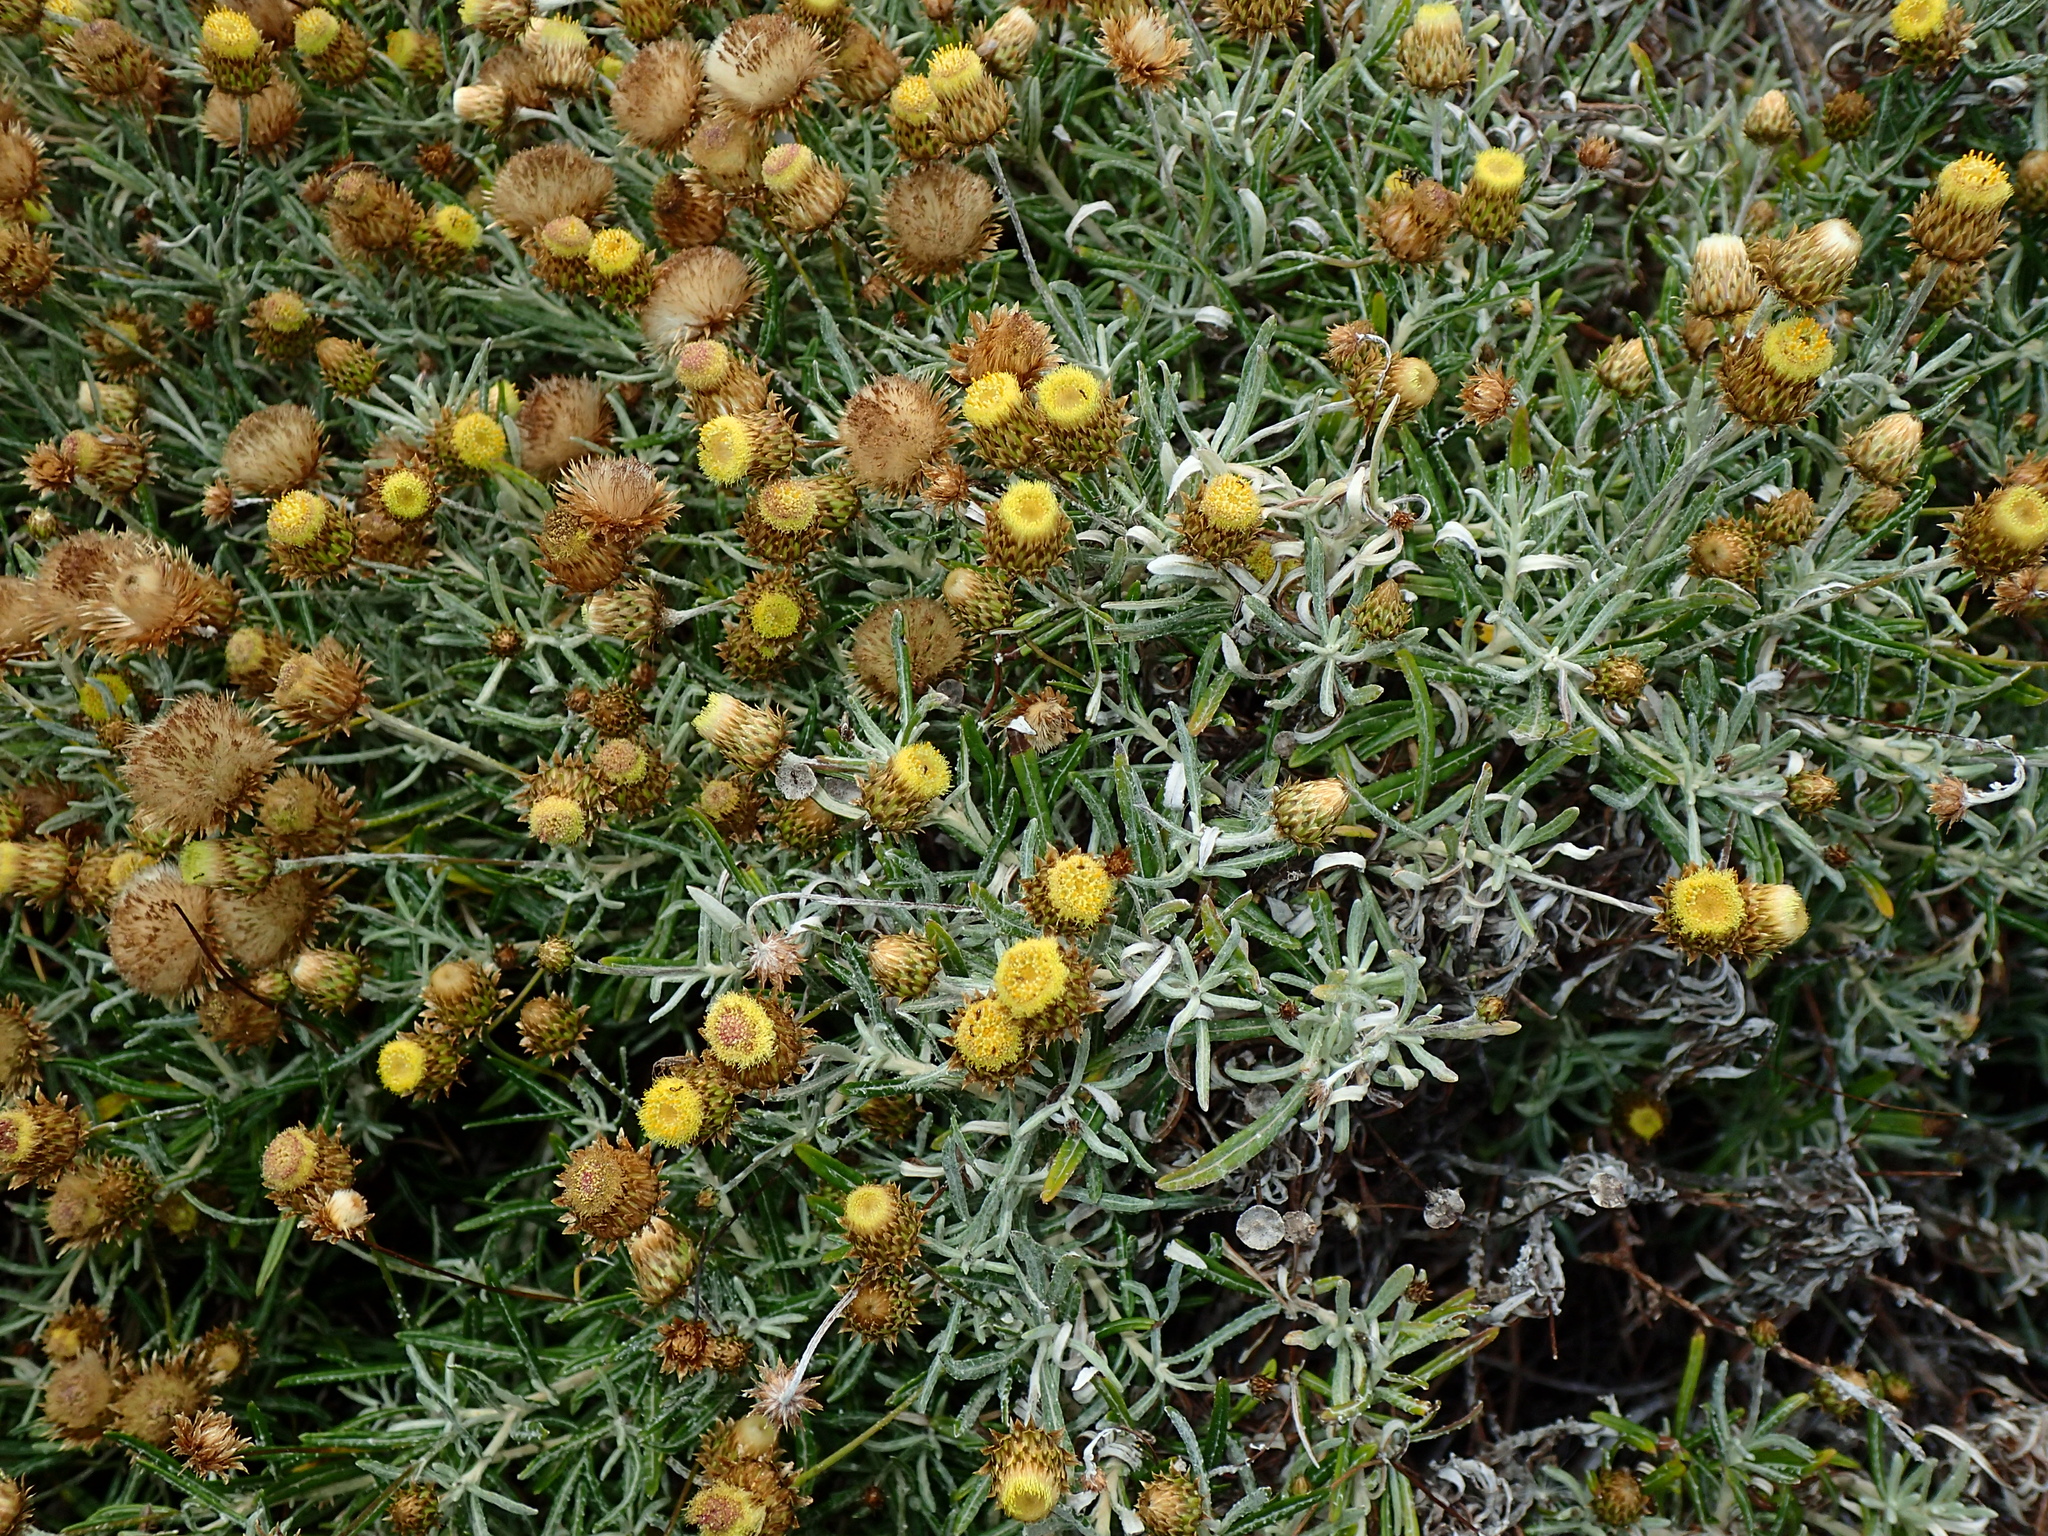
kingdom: Plantae
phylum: Tracheophyta
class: Magnoliopsida
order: Asterales
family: Asteraceae
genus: Phagnalon
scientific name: Phagnalon saxatile
